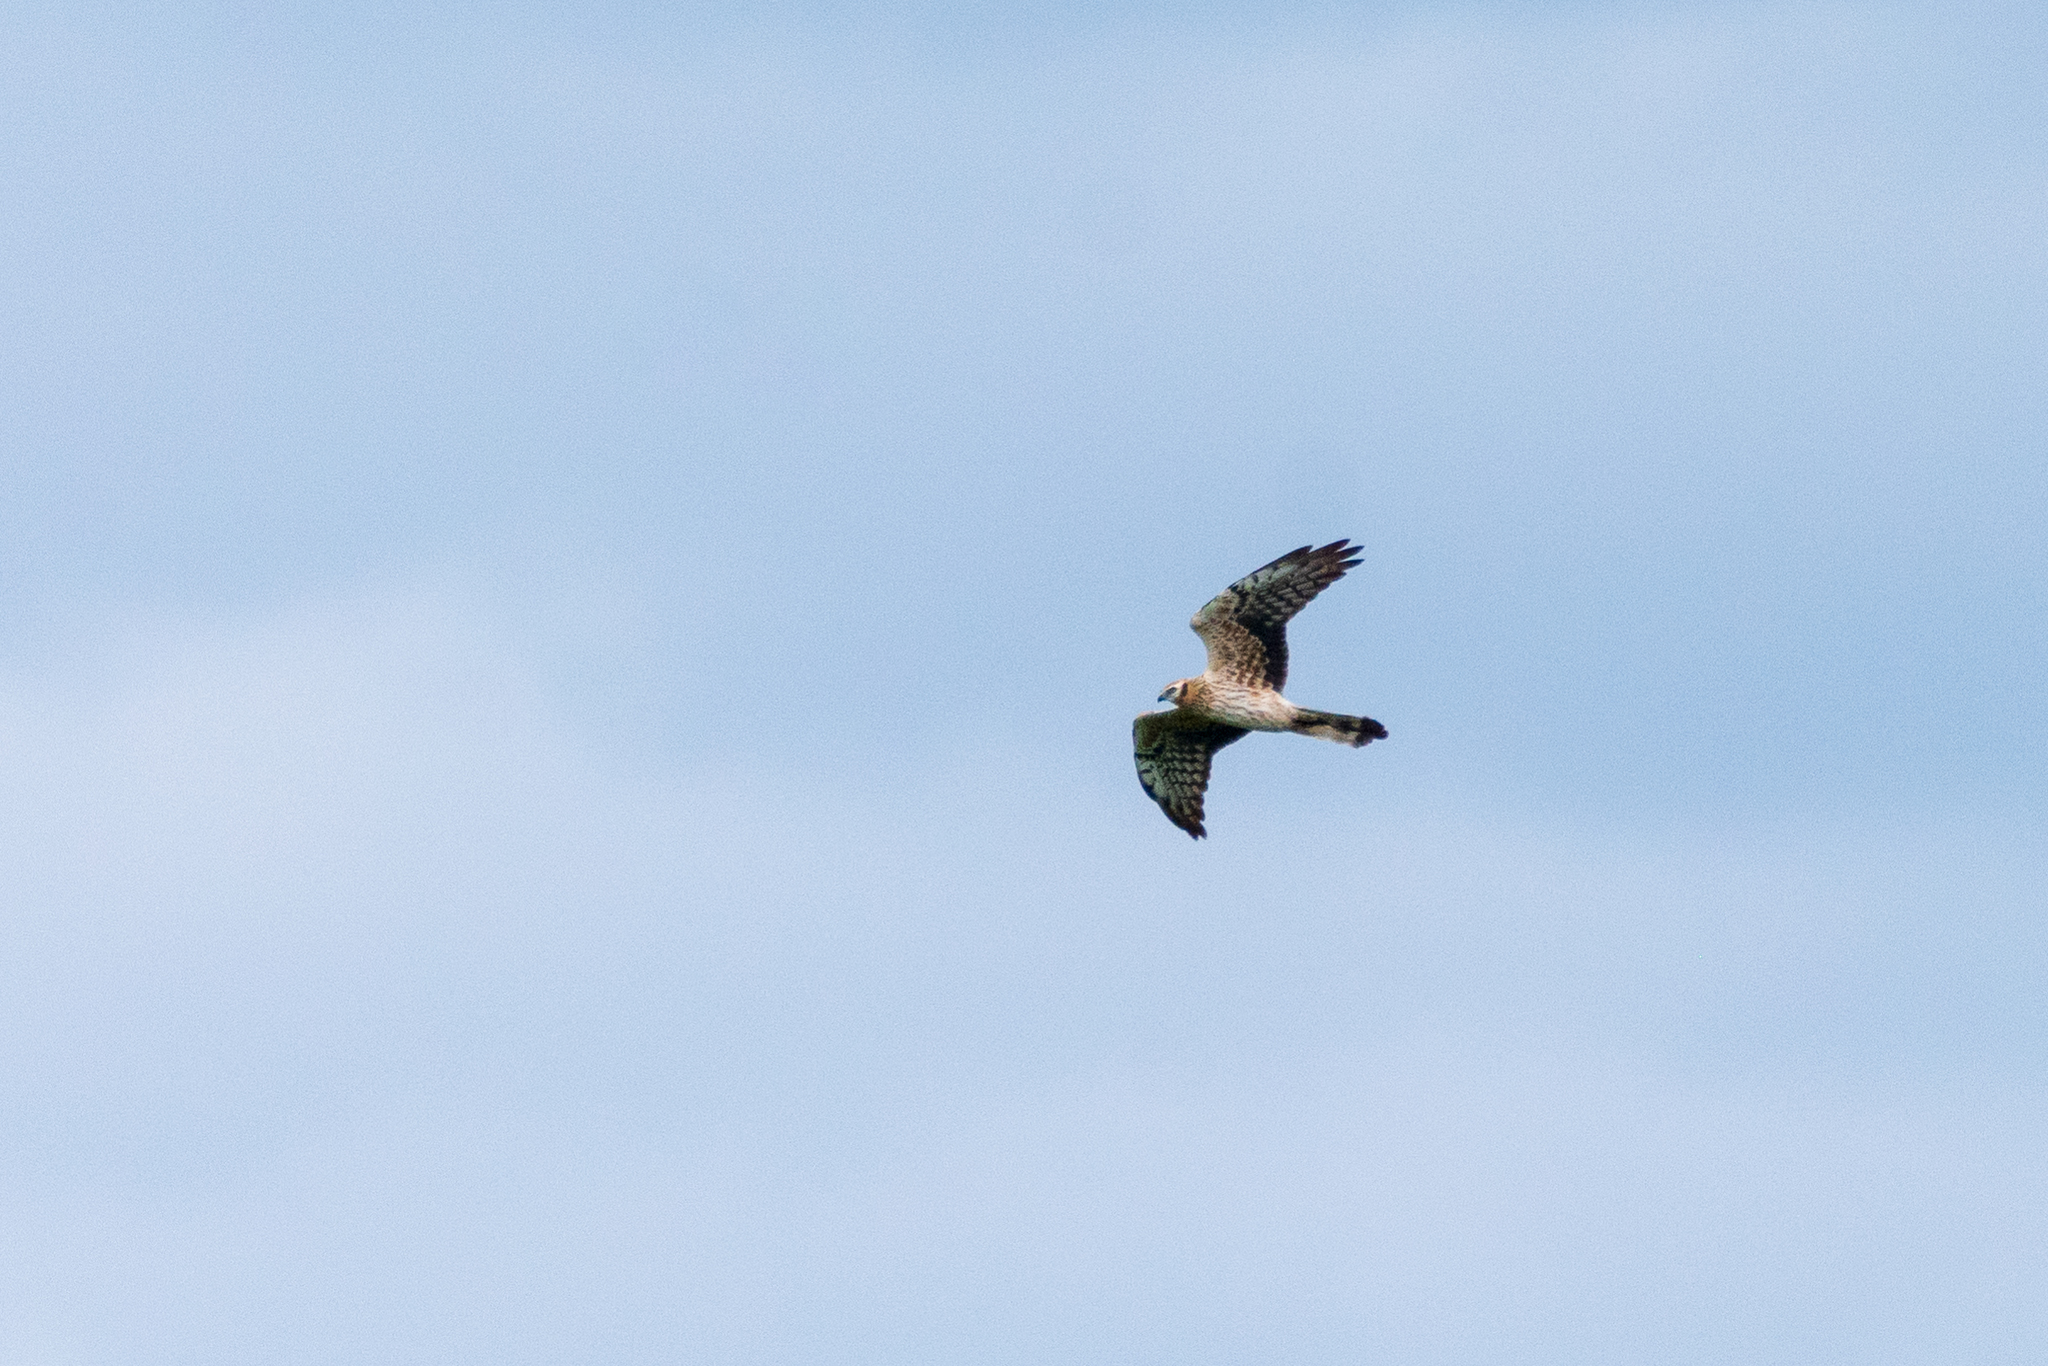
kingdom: Animalia
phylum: Chordata
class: Aves
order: Accipitriformes
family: Accipitridae
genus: Circus
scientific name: Circus pygargus
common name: Montagu's harrier
